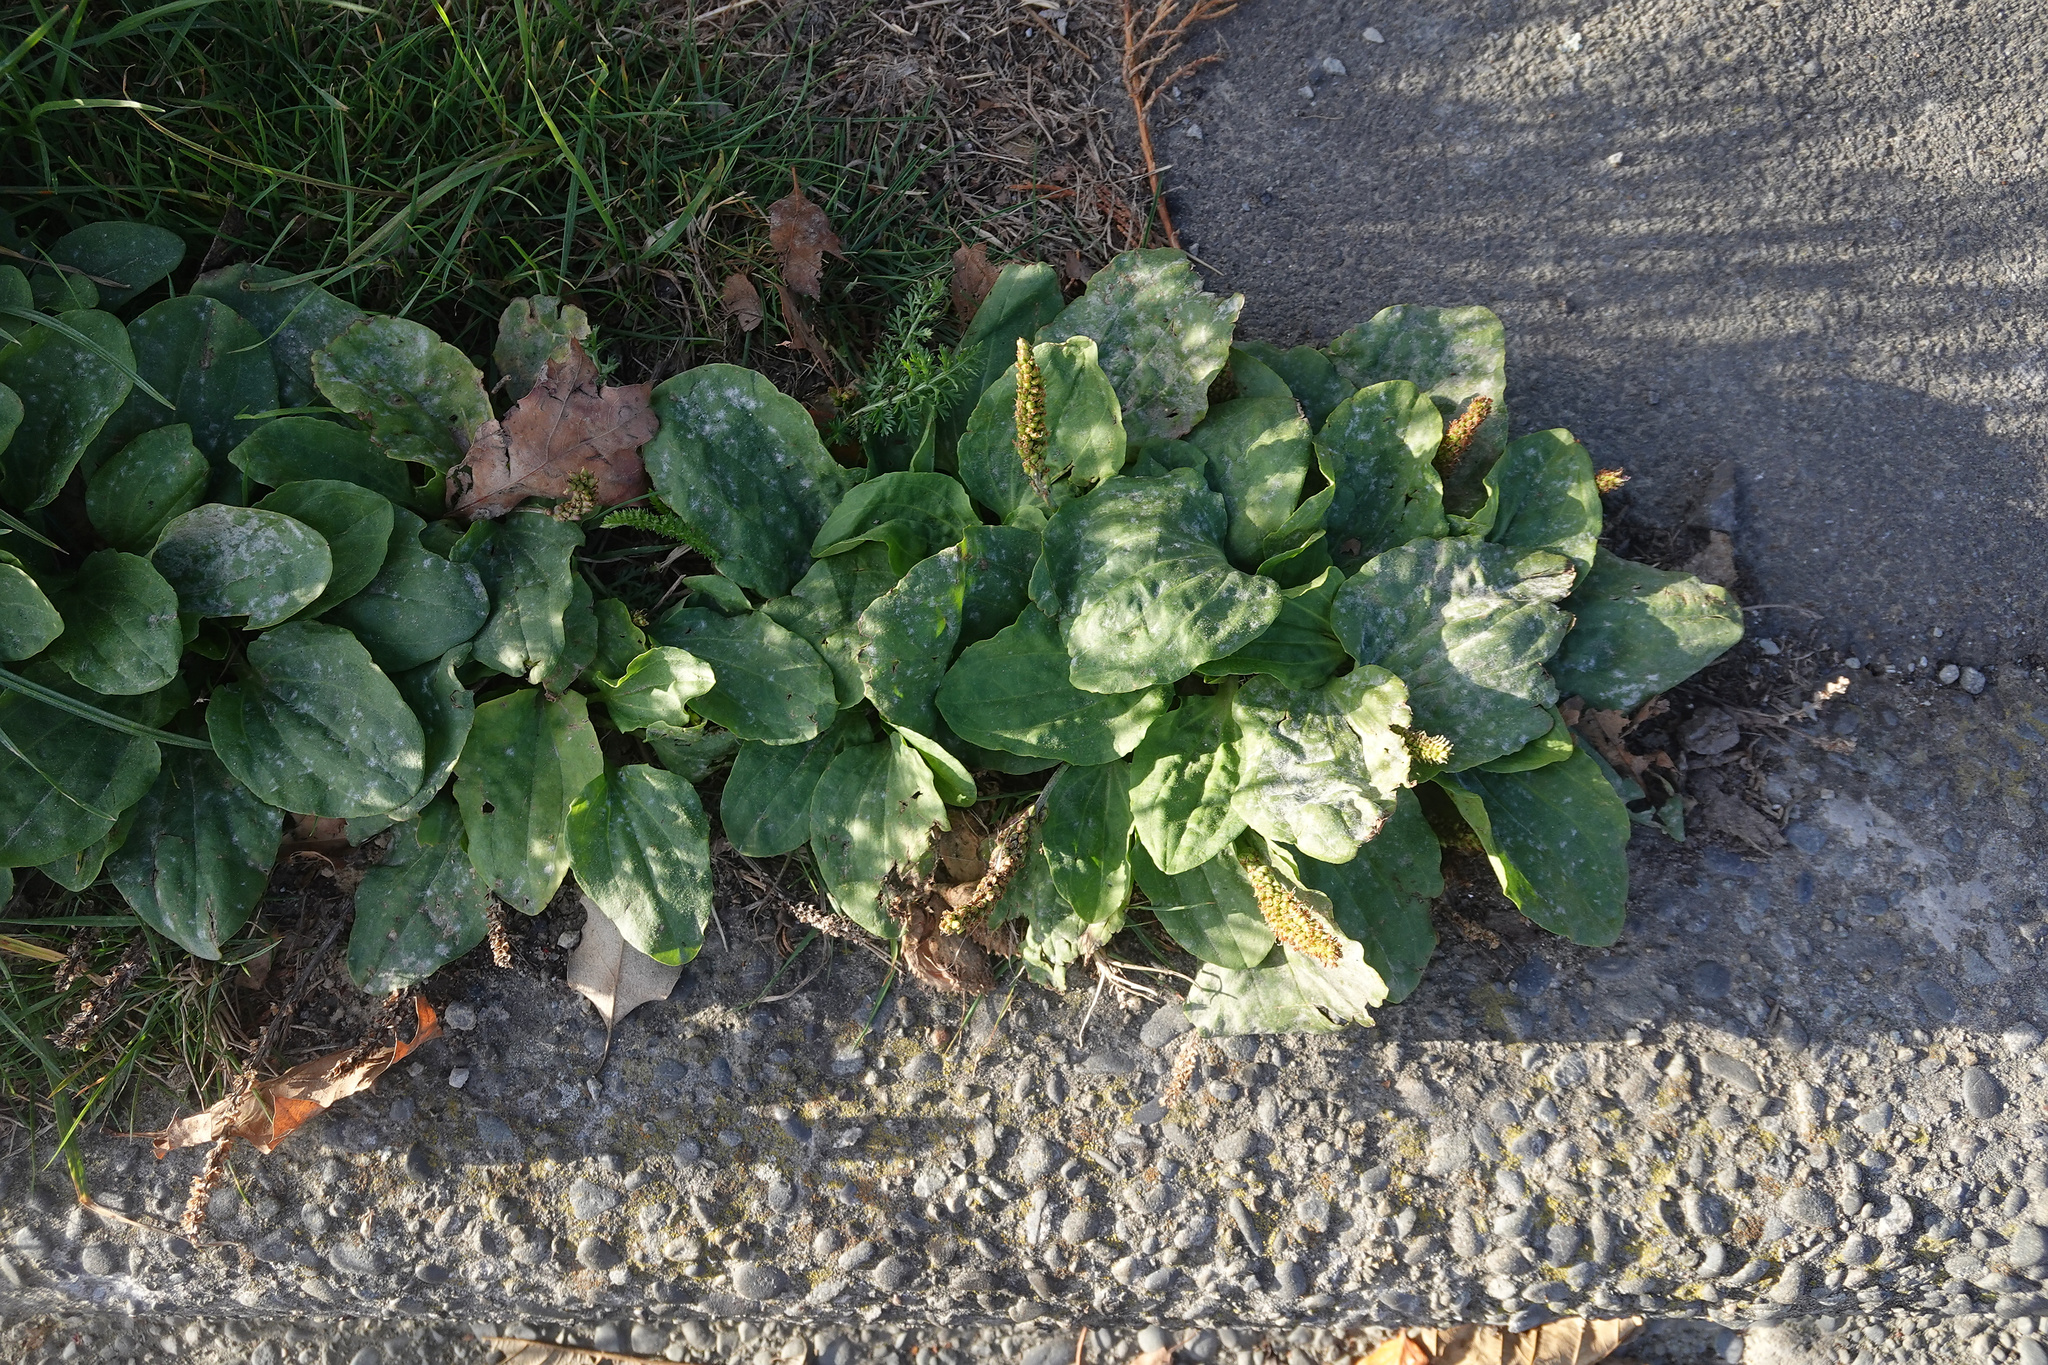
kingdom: Plantae
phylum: Tracheophyta
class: Magnoliopsida
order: Lamiales
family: Plantaginaceae
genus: Plantago
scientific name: Plantago major
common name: Common plantain
